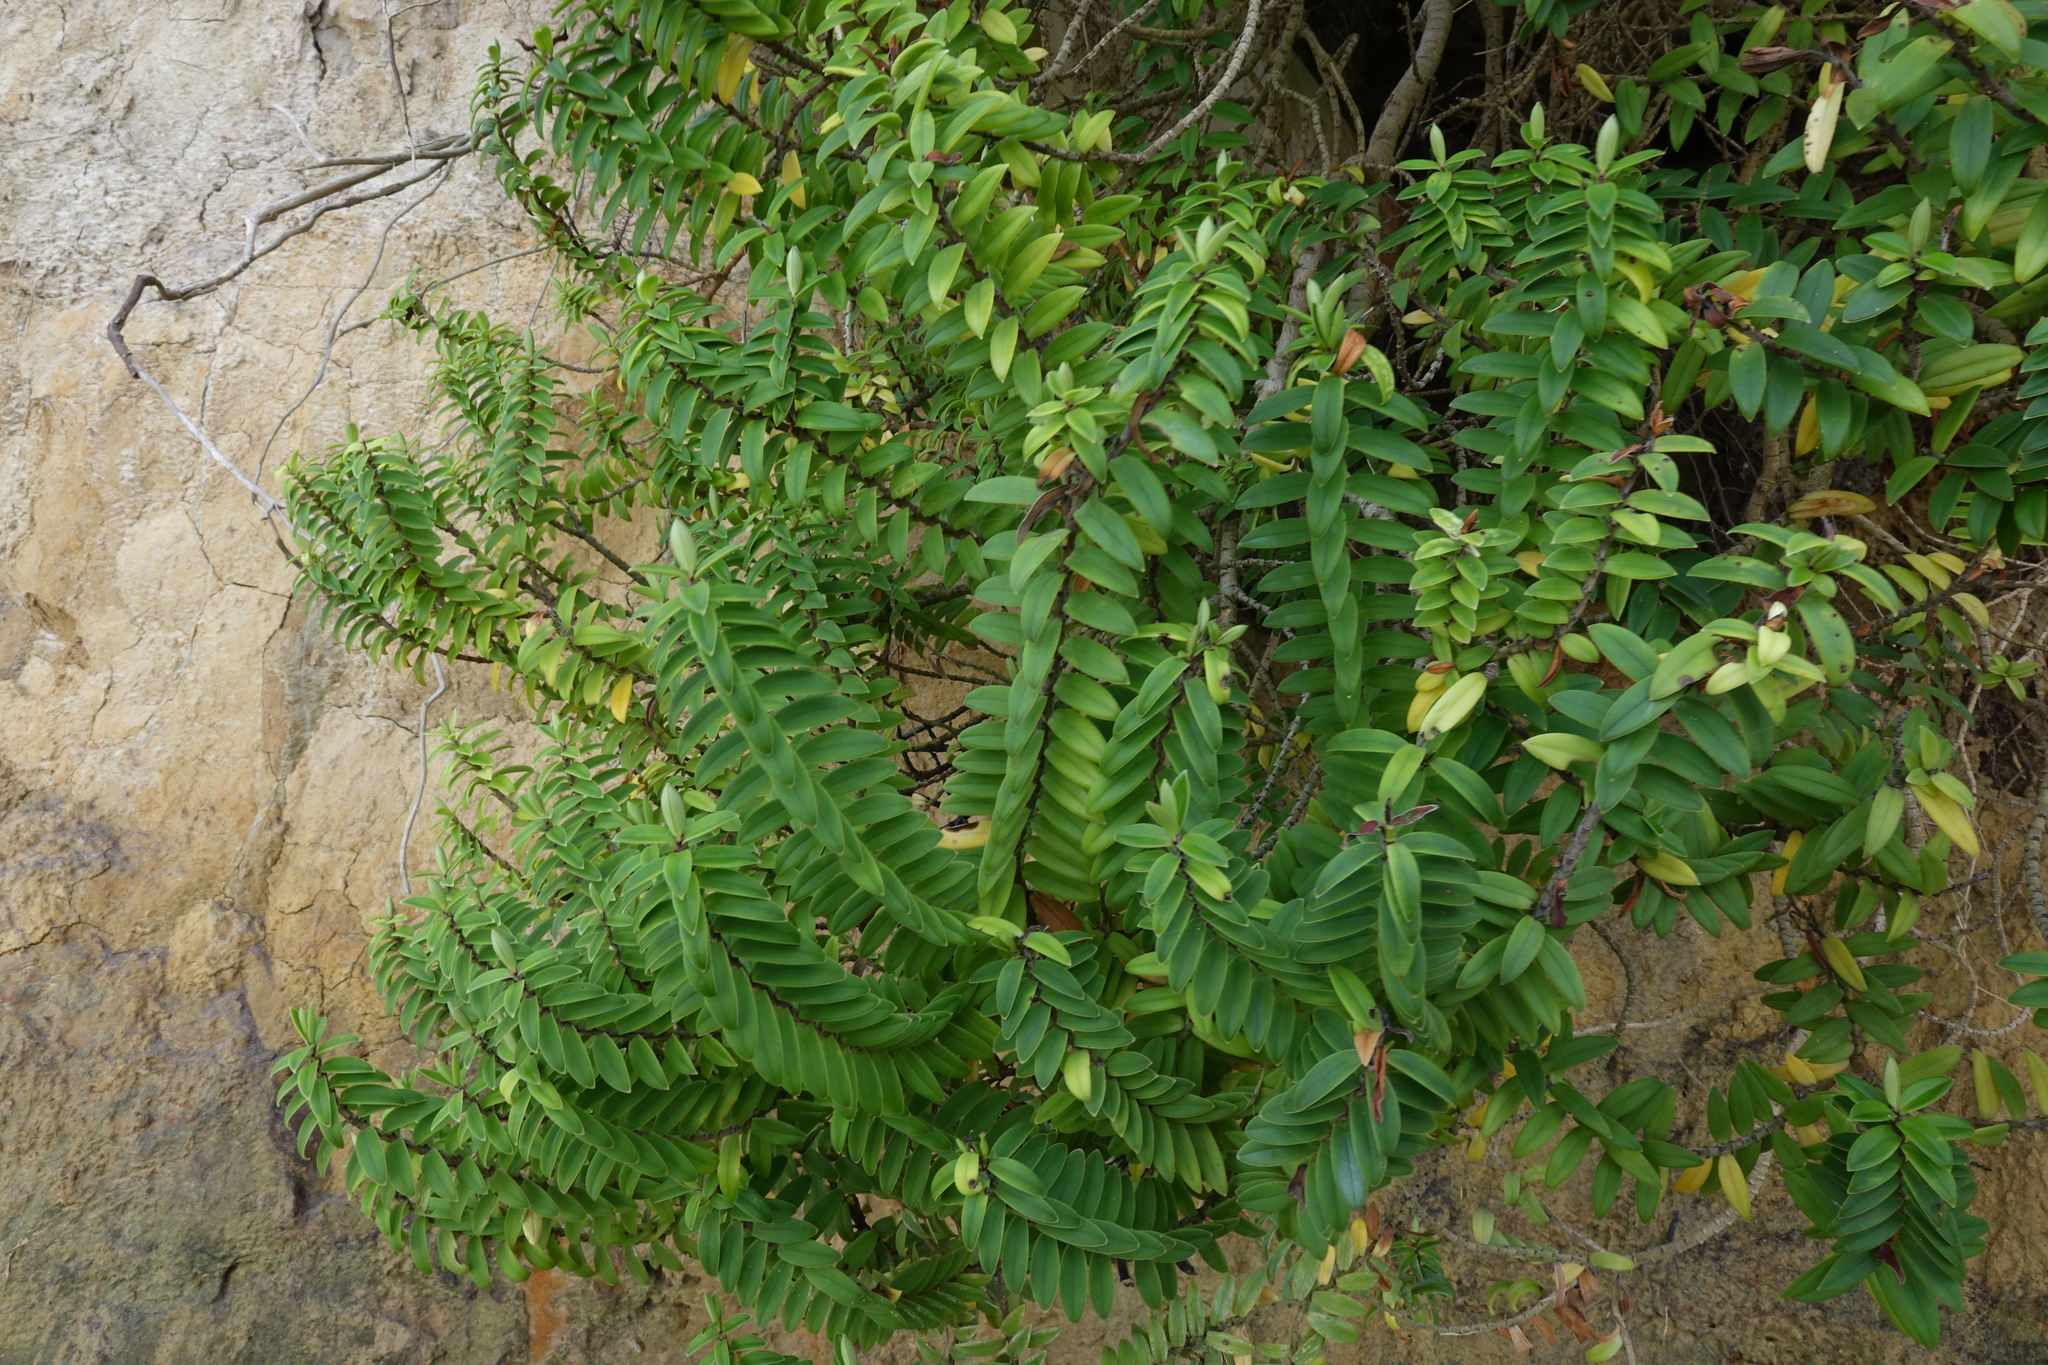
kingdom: Plantae
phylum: Tracheophyta
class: Magnoliopsida
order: Lamiales
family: Plantaginaceae
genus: Veronica
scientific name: Veronica elliptica
